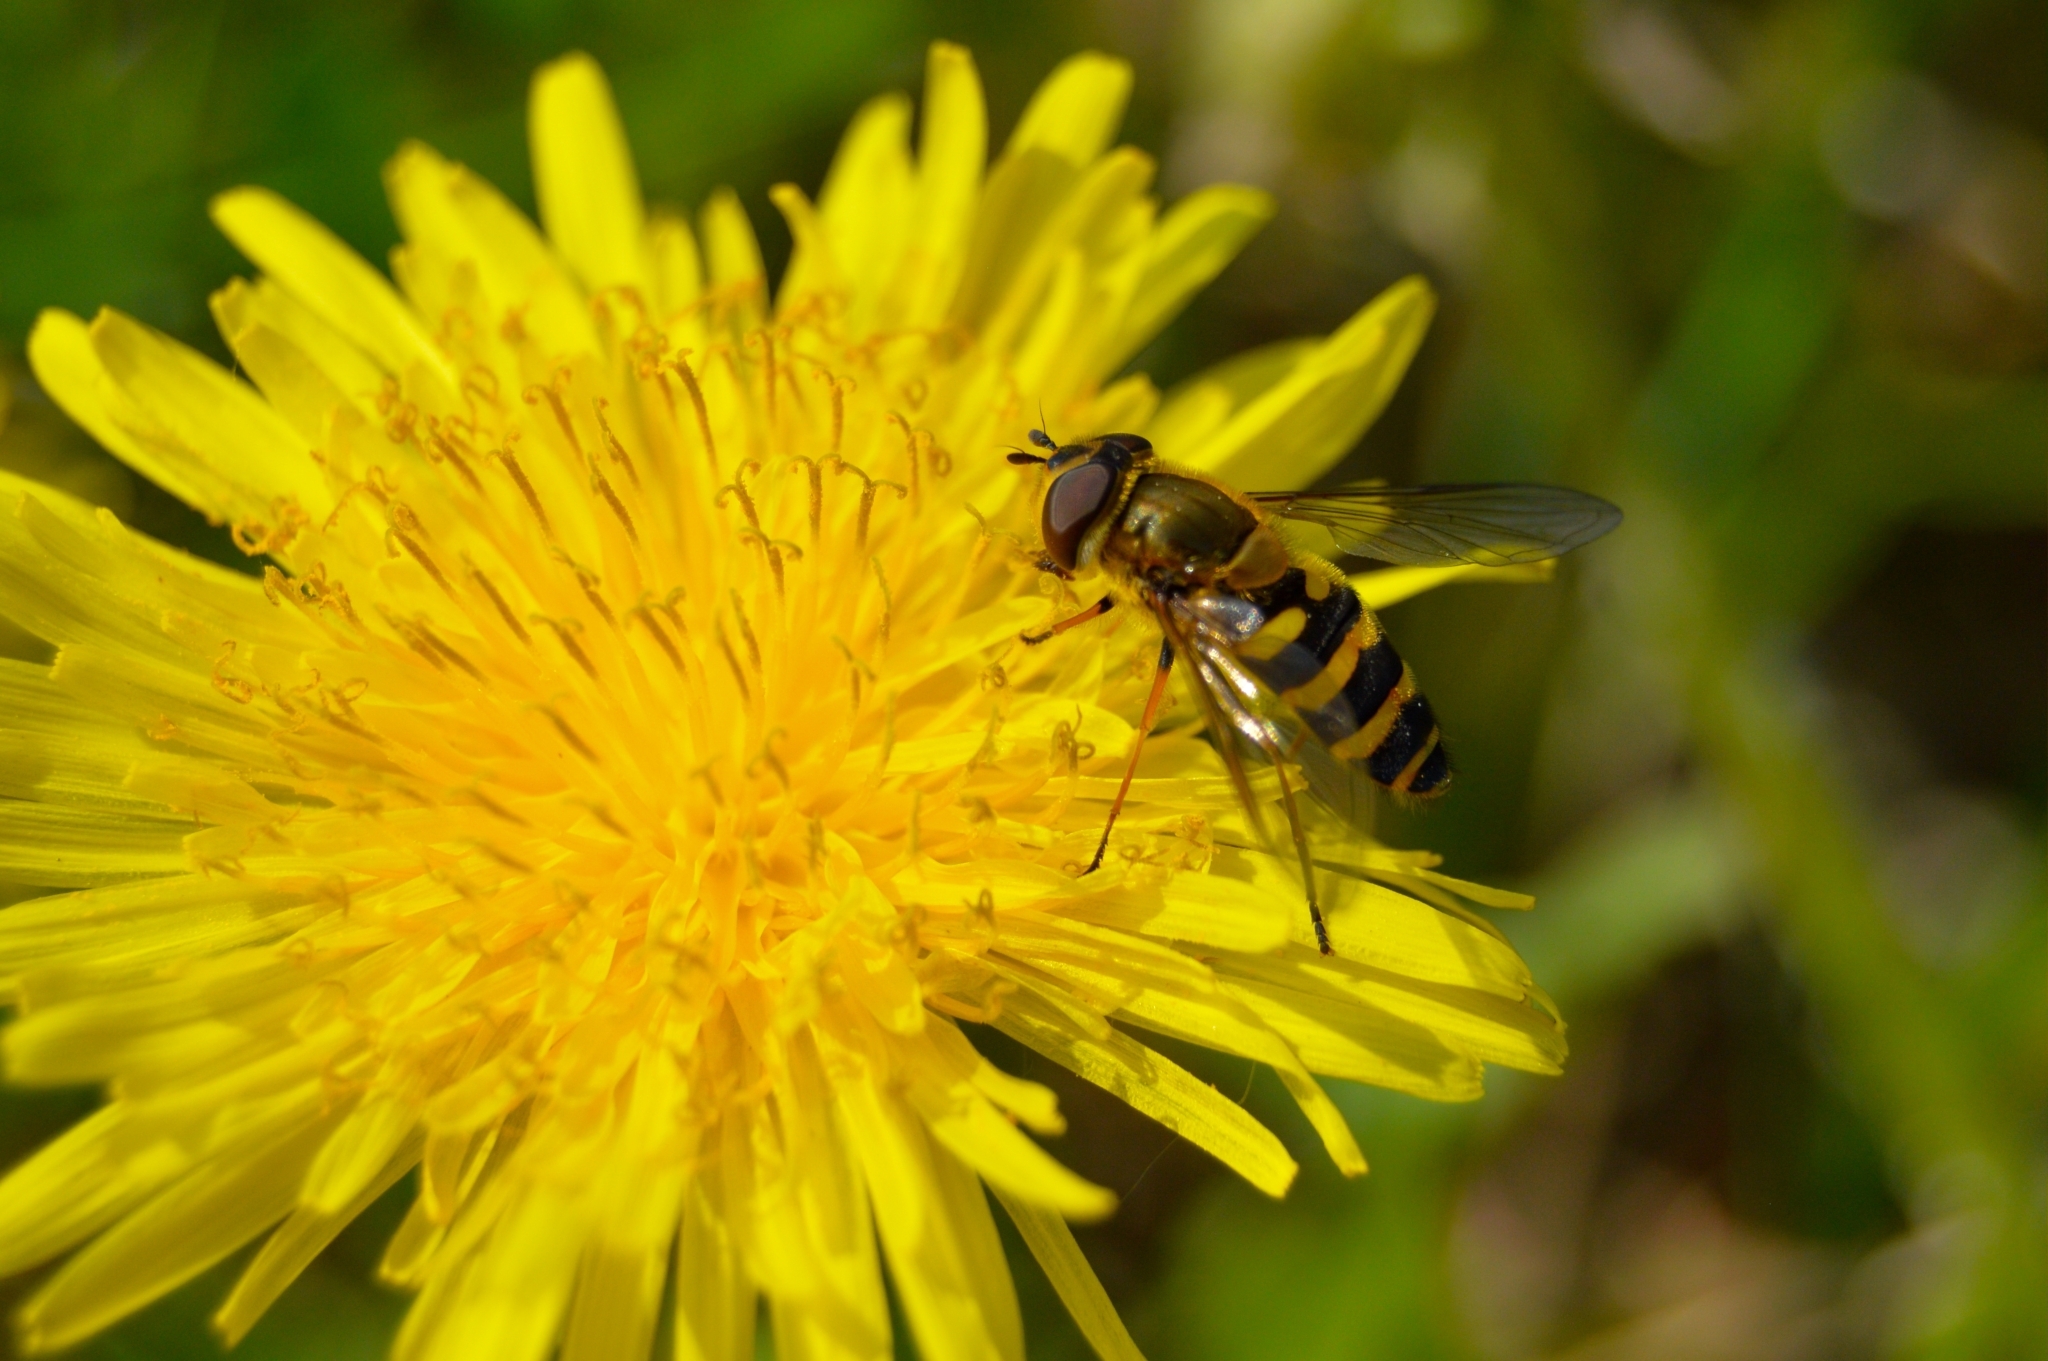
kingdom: Animalia
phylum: Arthropoda
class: Insecta
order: Diptera
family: Syrphidae
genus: Syrphus
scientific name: Syrphus ribesii
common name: Common flower fly
